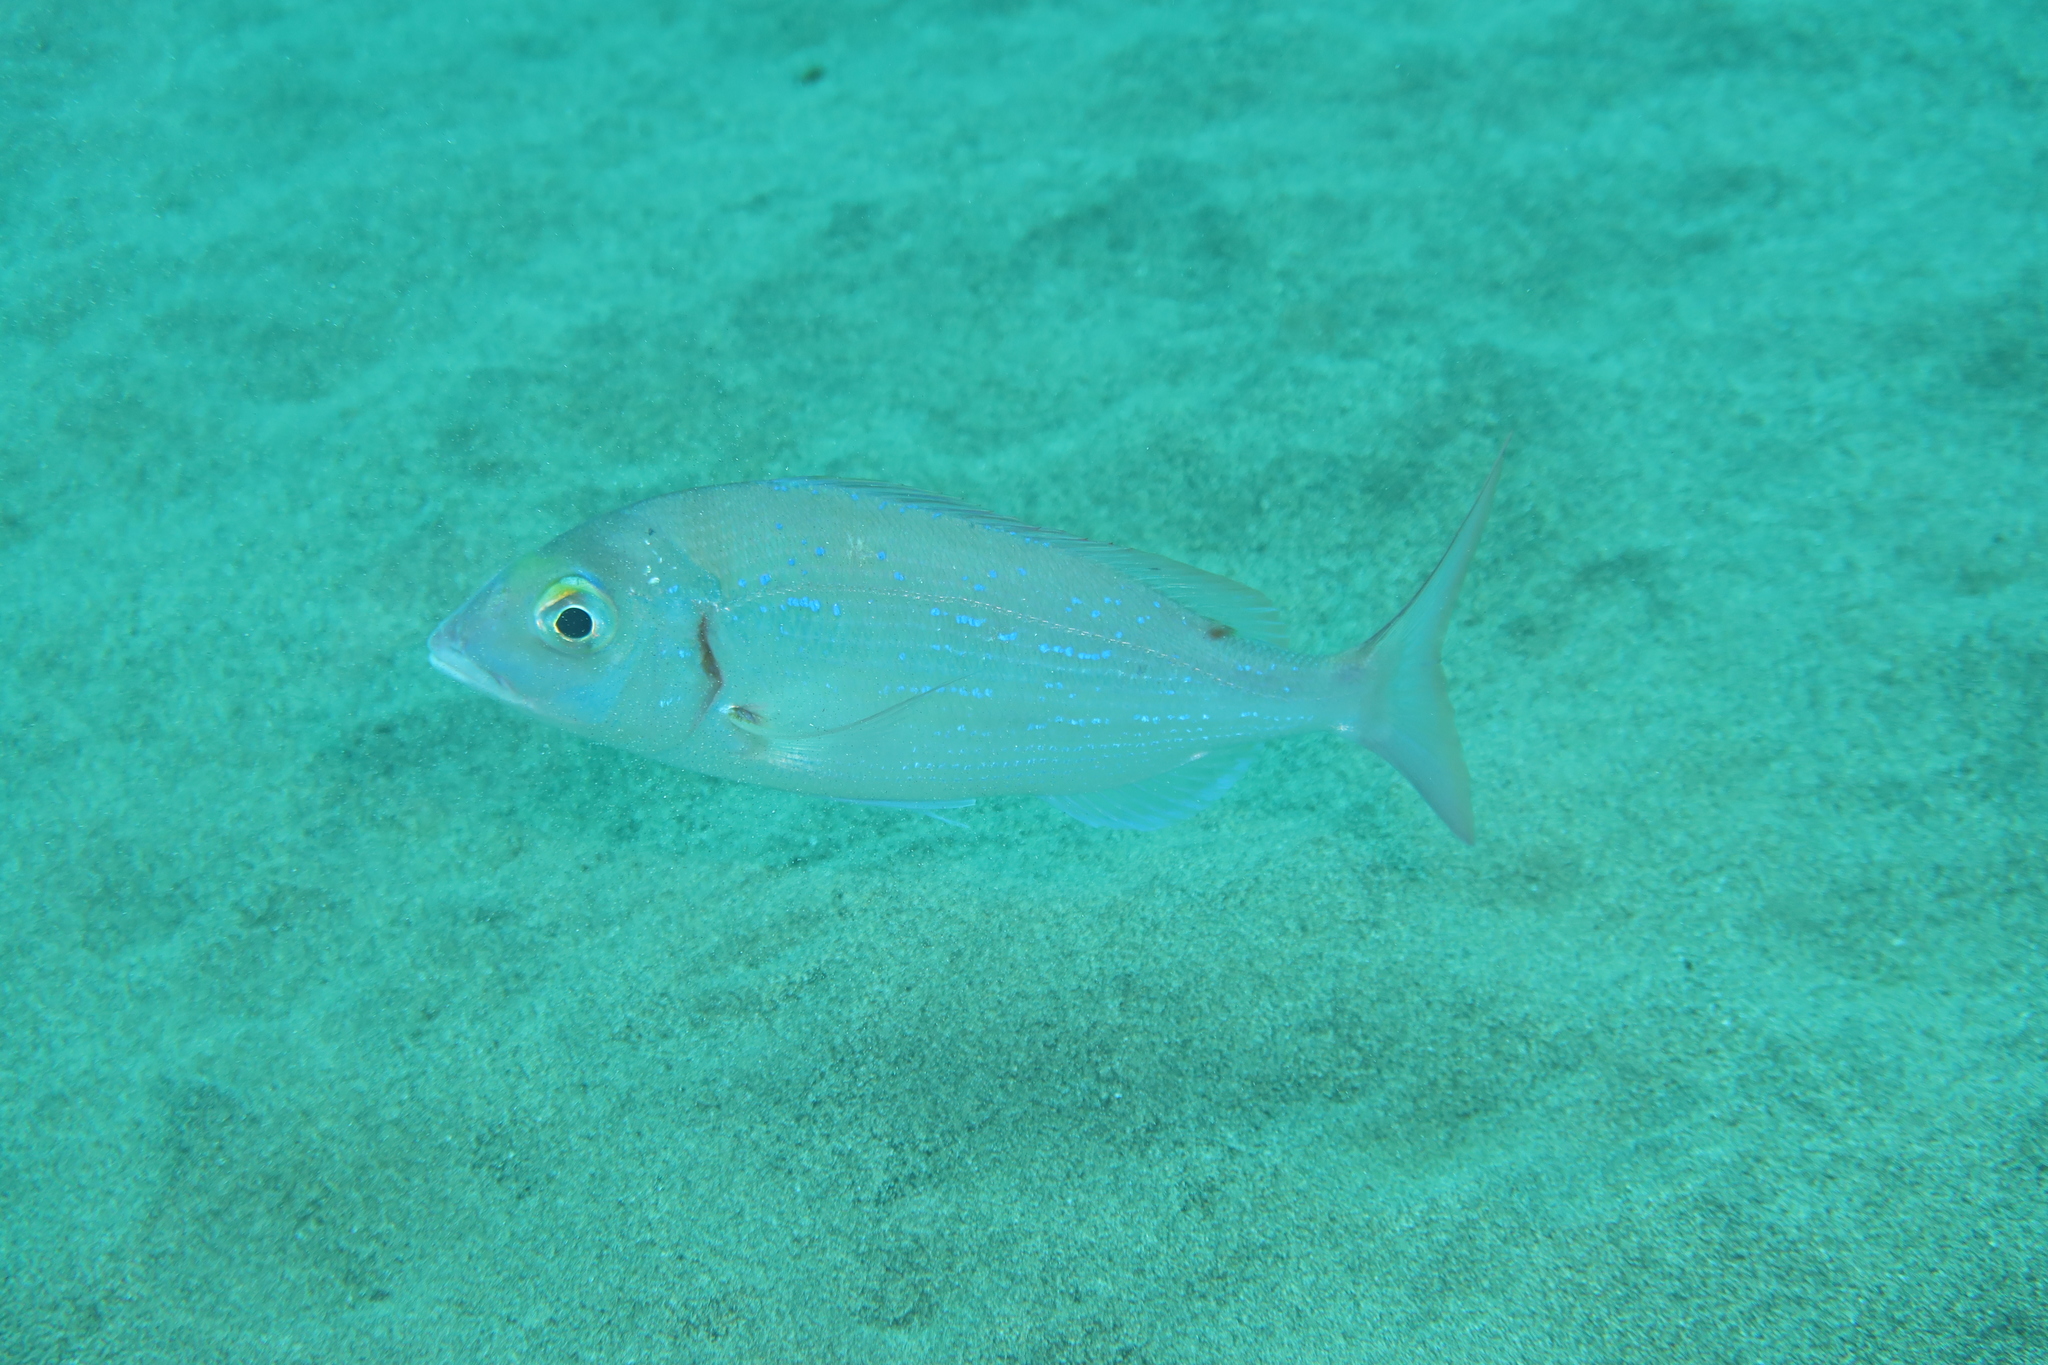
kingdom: Animalia
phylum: Chordata
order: Perciformes
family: Sparidae
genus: Pagellus
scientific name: Pagellus erythrinus
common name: Pandora
